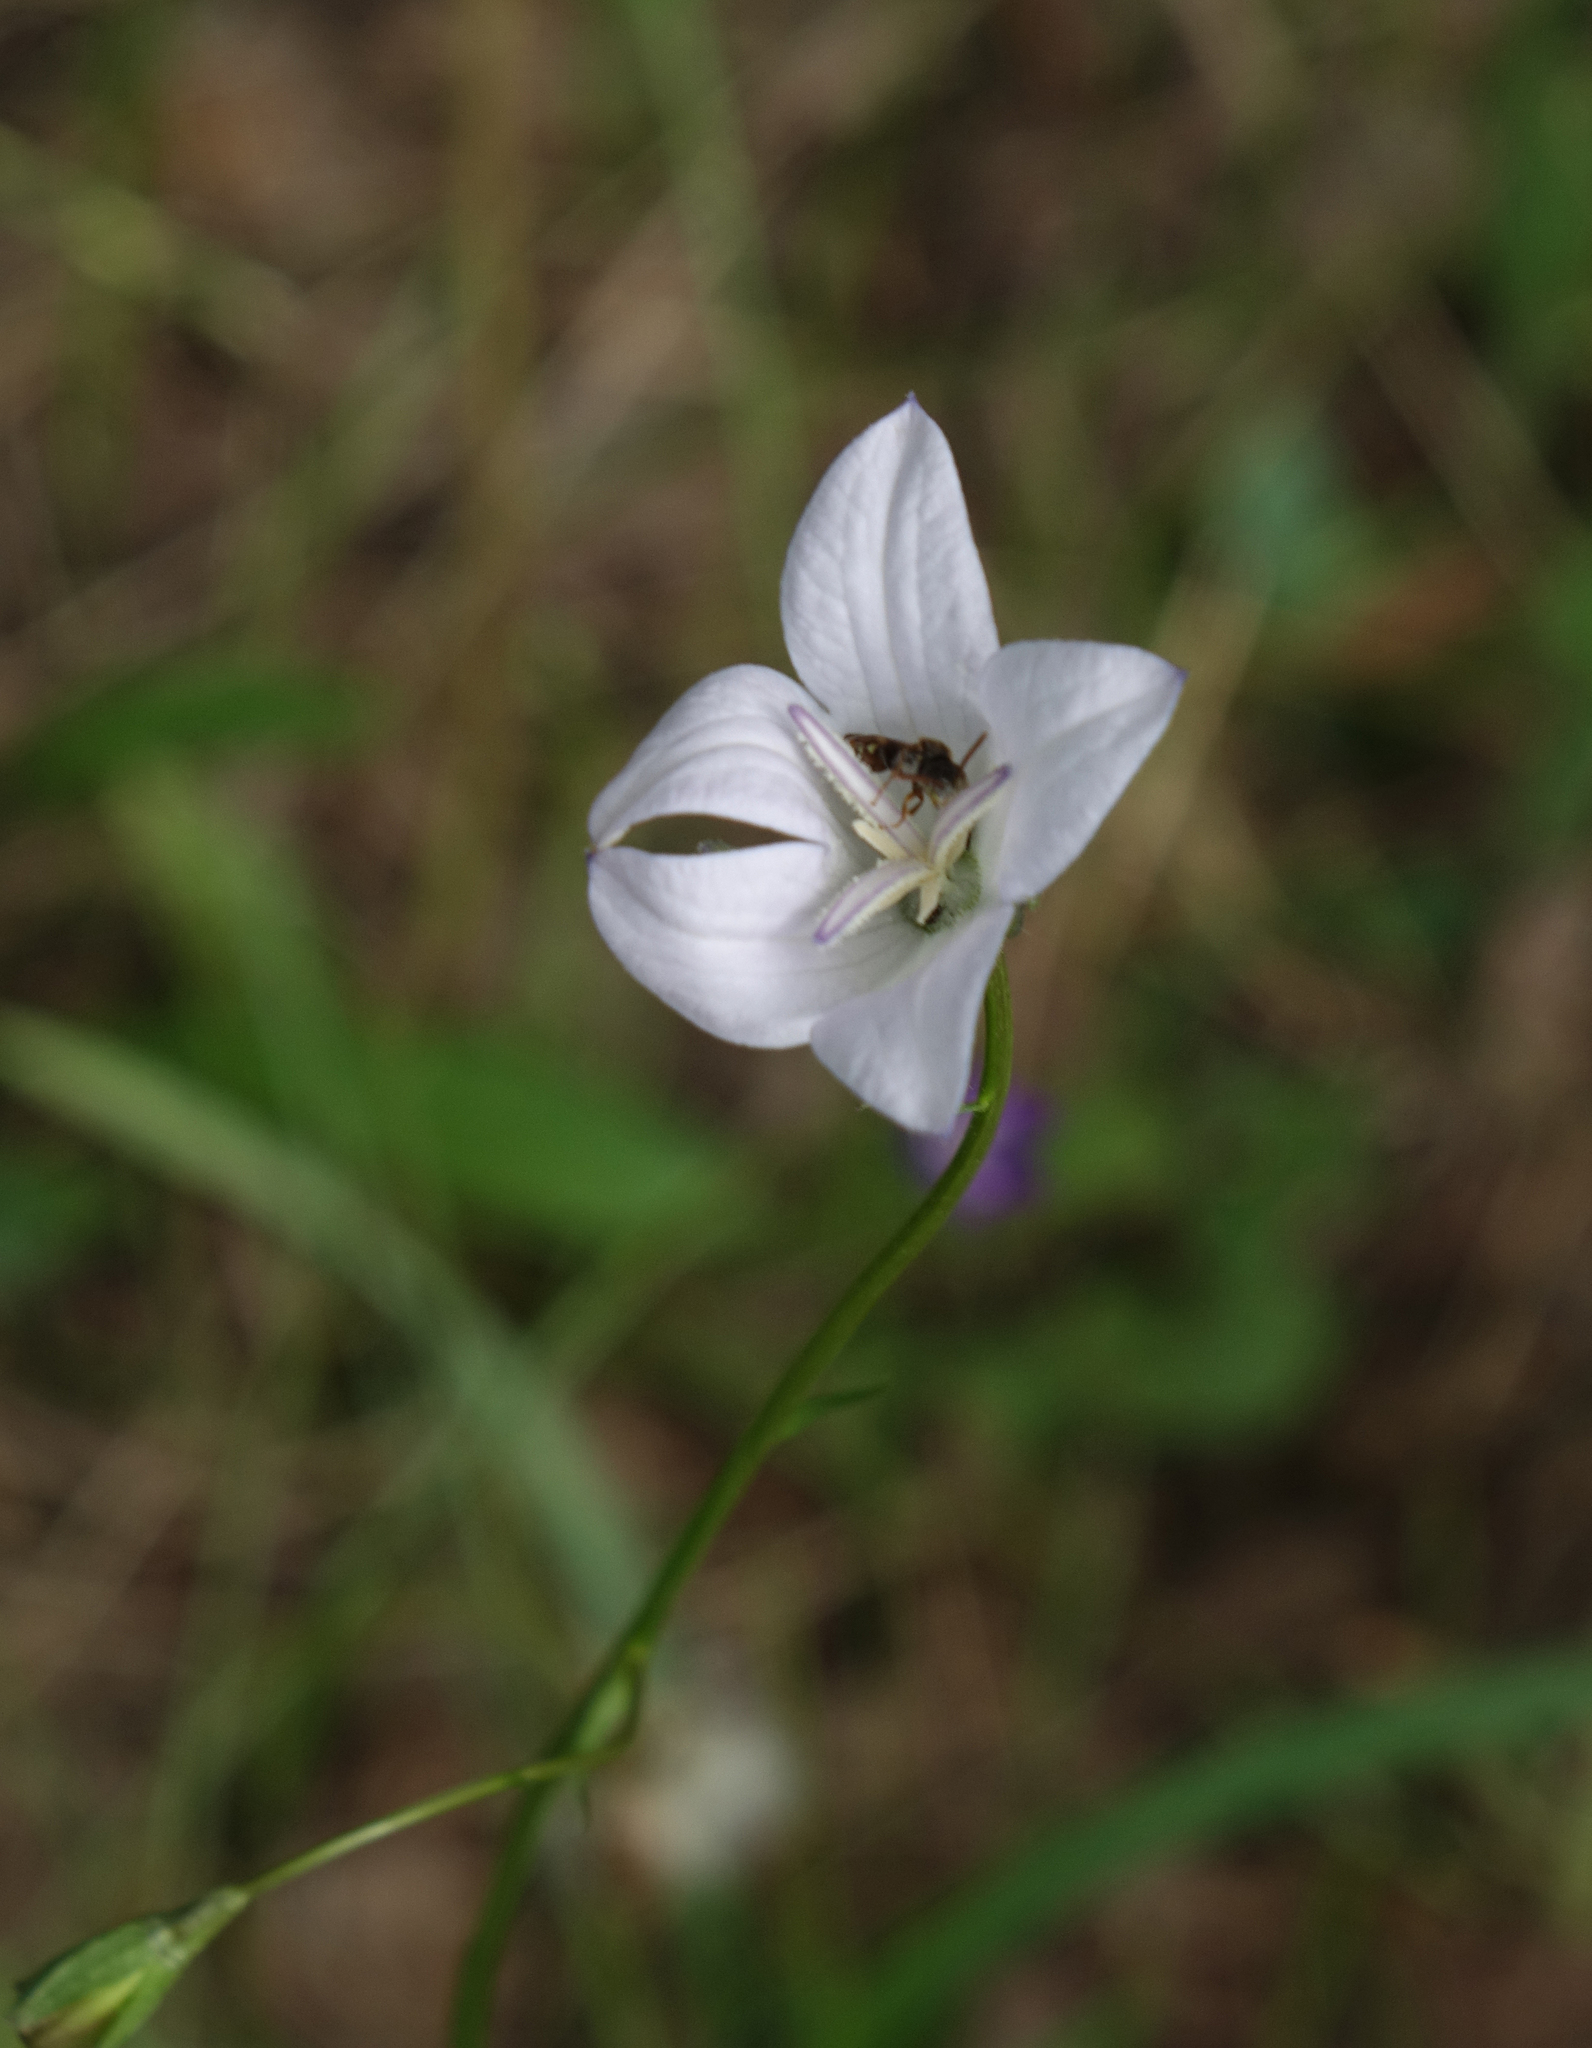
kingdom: Plantae
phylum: Tracheophyta
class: Magnoliopsida
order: Asterales
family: Campanulaceae
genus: Campanula
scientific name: Campanula stevenii
